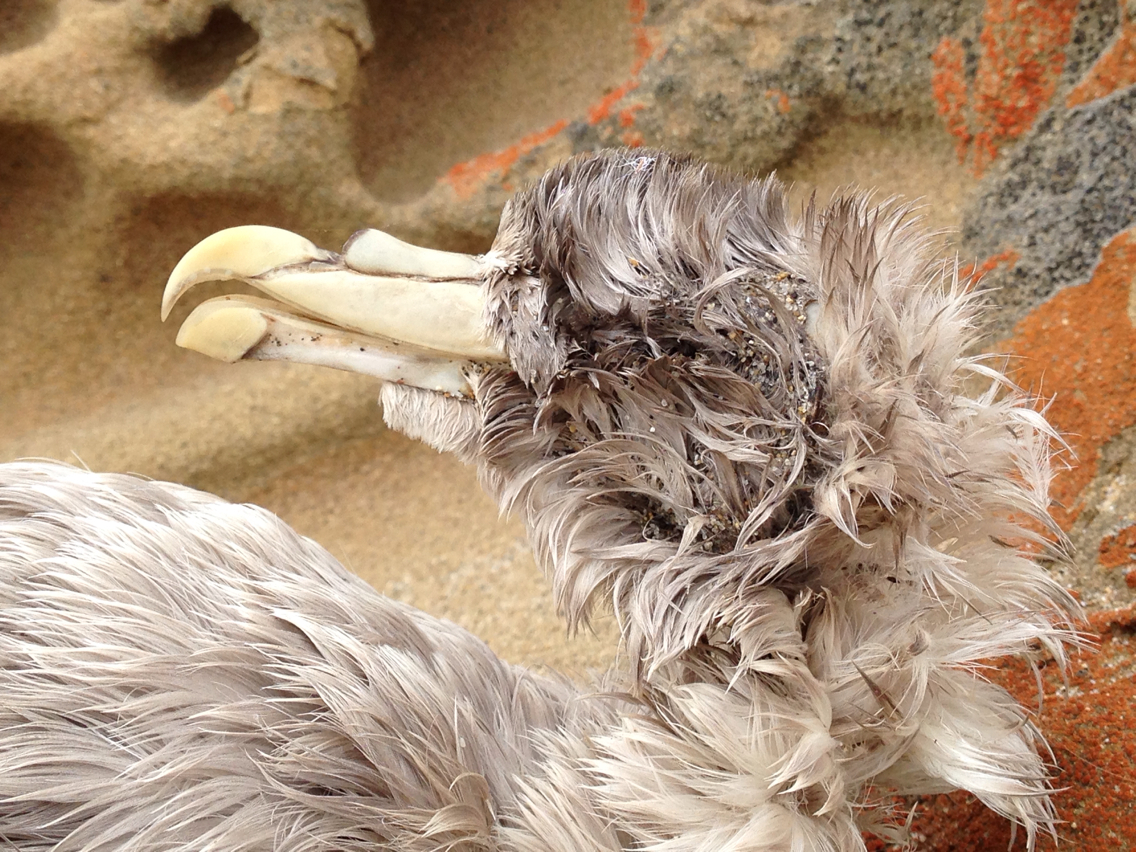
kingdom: Animalia
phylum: Chordata
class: Aves
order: Procellariiformes
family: Procellariidae
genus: Fulmarus
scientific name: Fulmarus glacialis
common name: Northern fulmar
